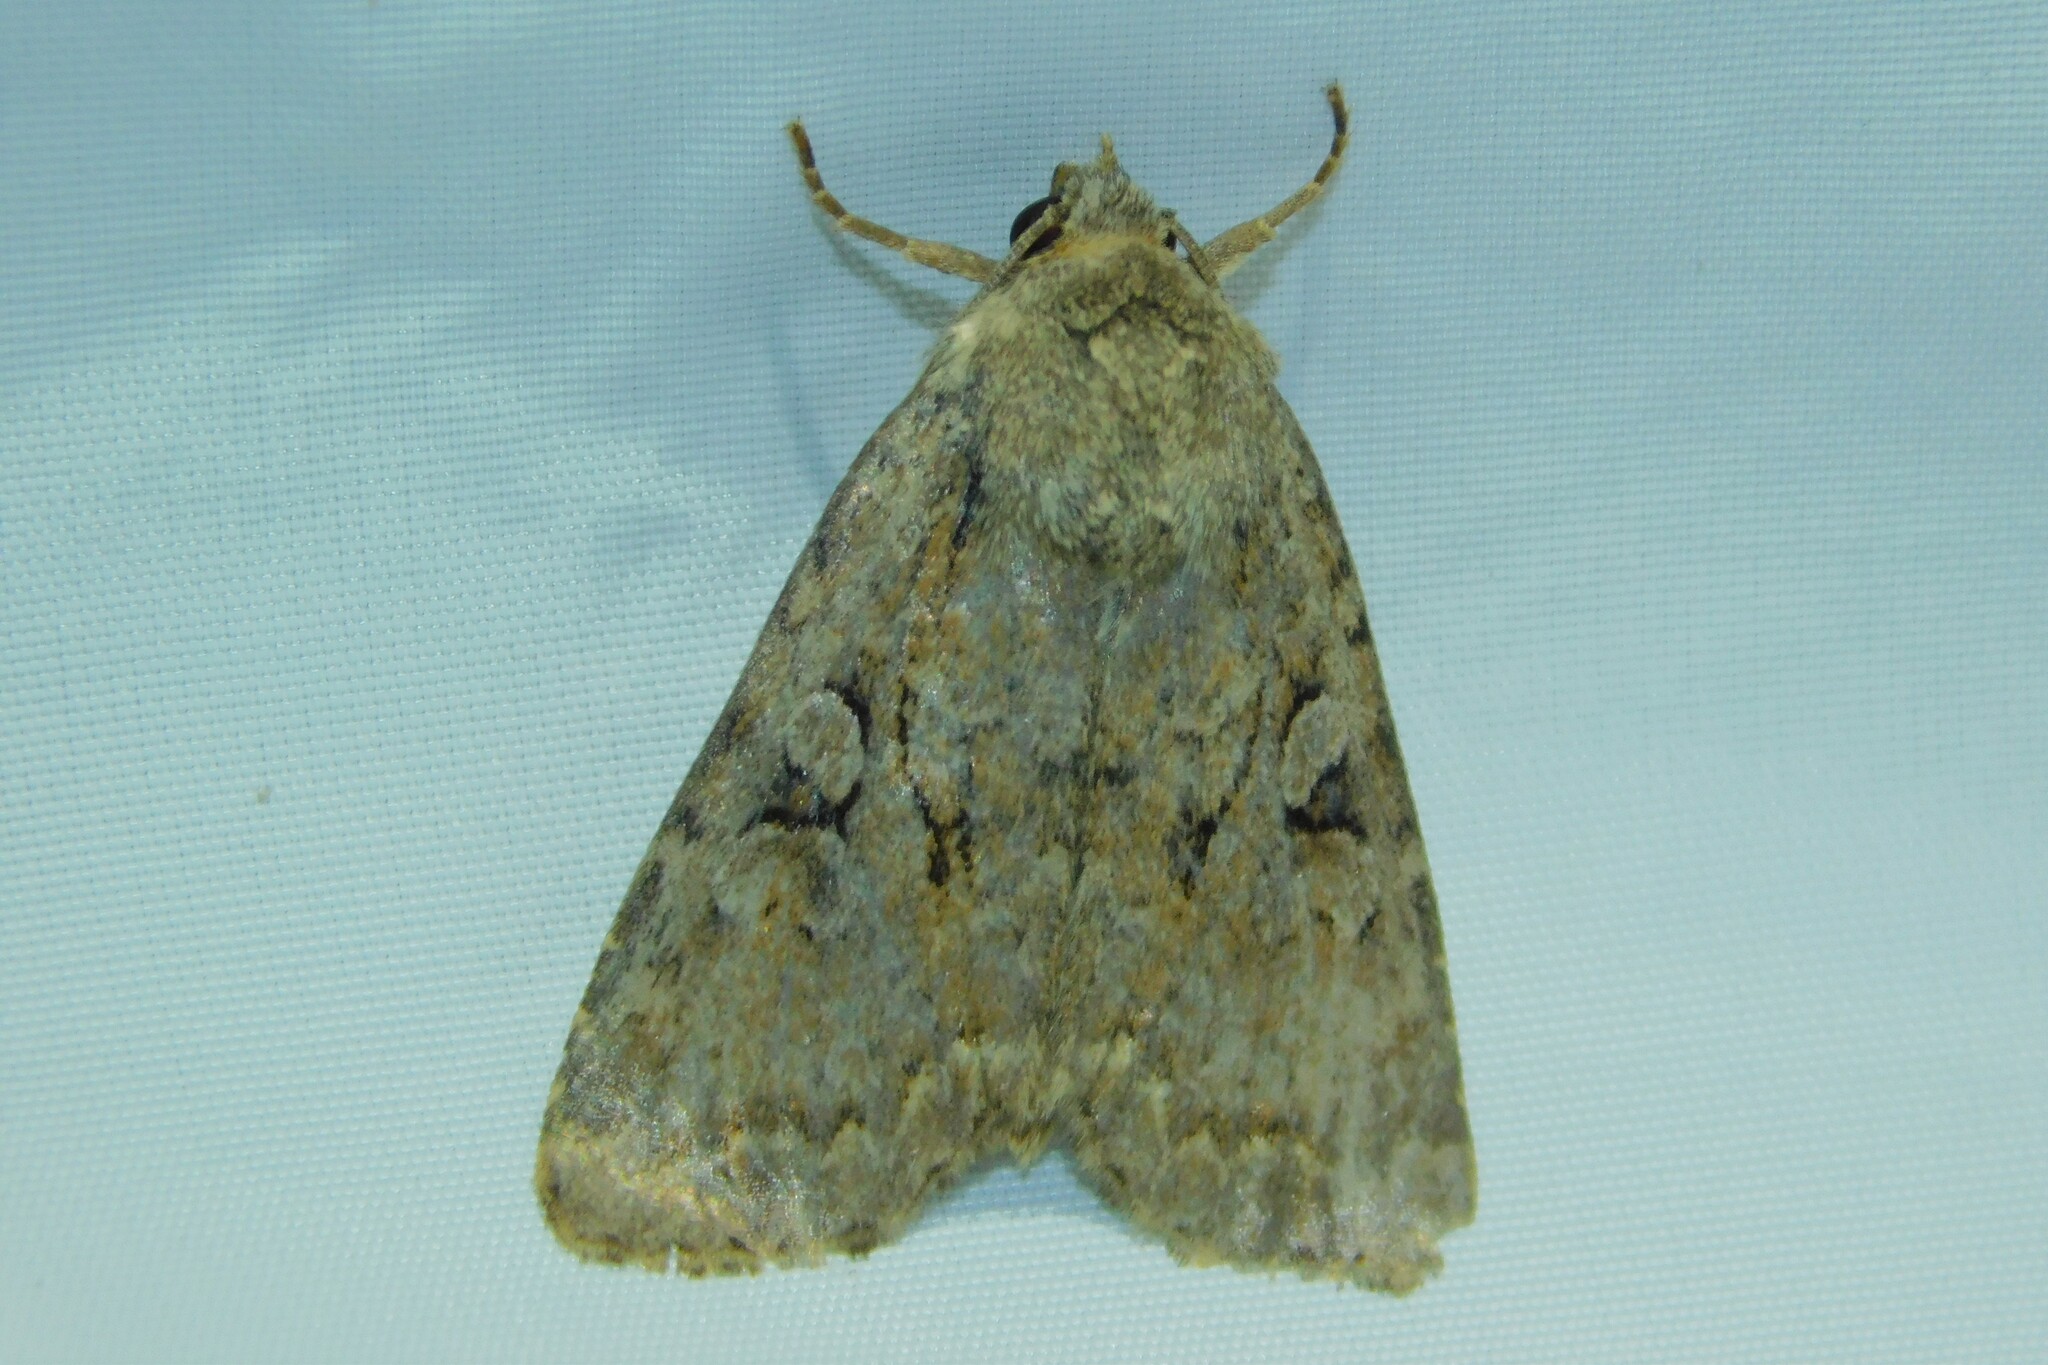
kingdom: Animalia
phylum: Arthropoda
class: Insecta
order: Lepidoptera
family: Noctuidae
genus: Apterogenum
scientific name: Apterogenum ypsillon
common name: Dingy shears
